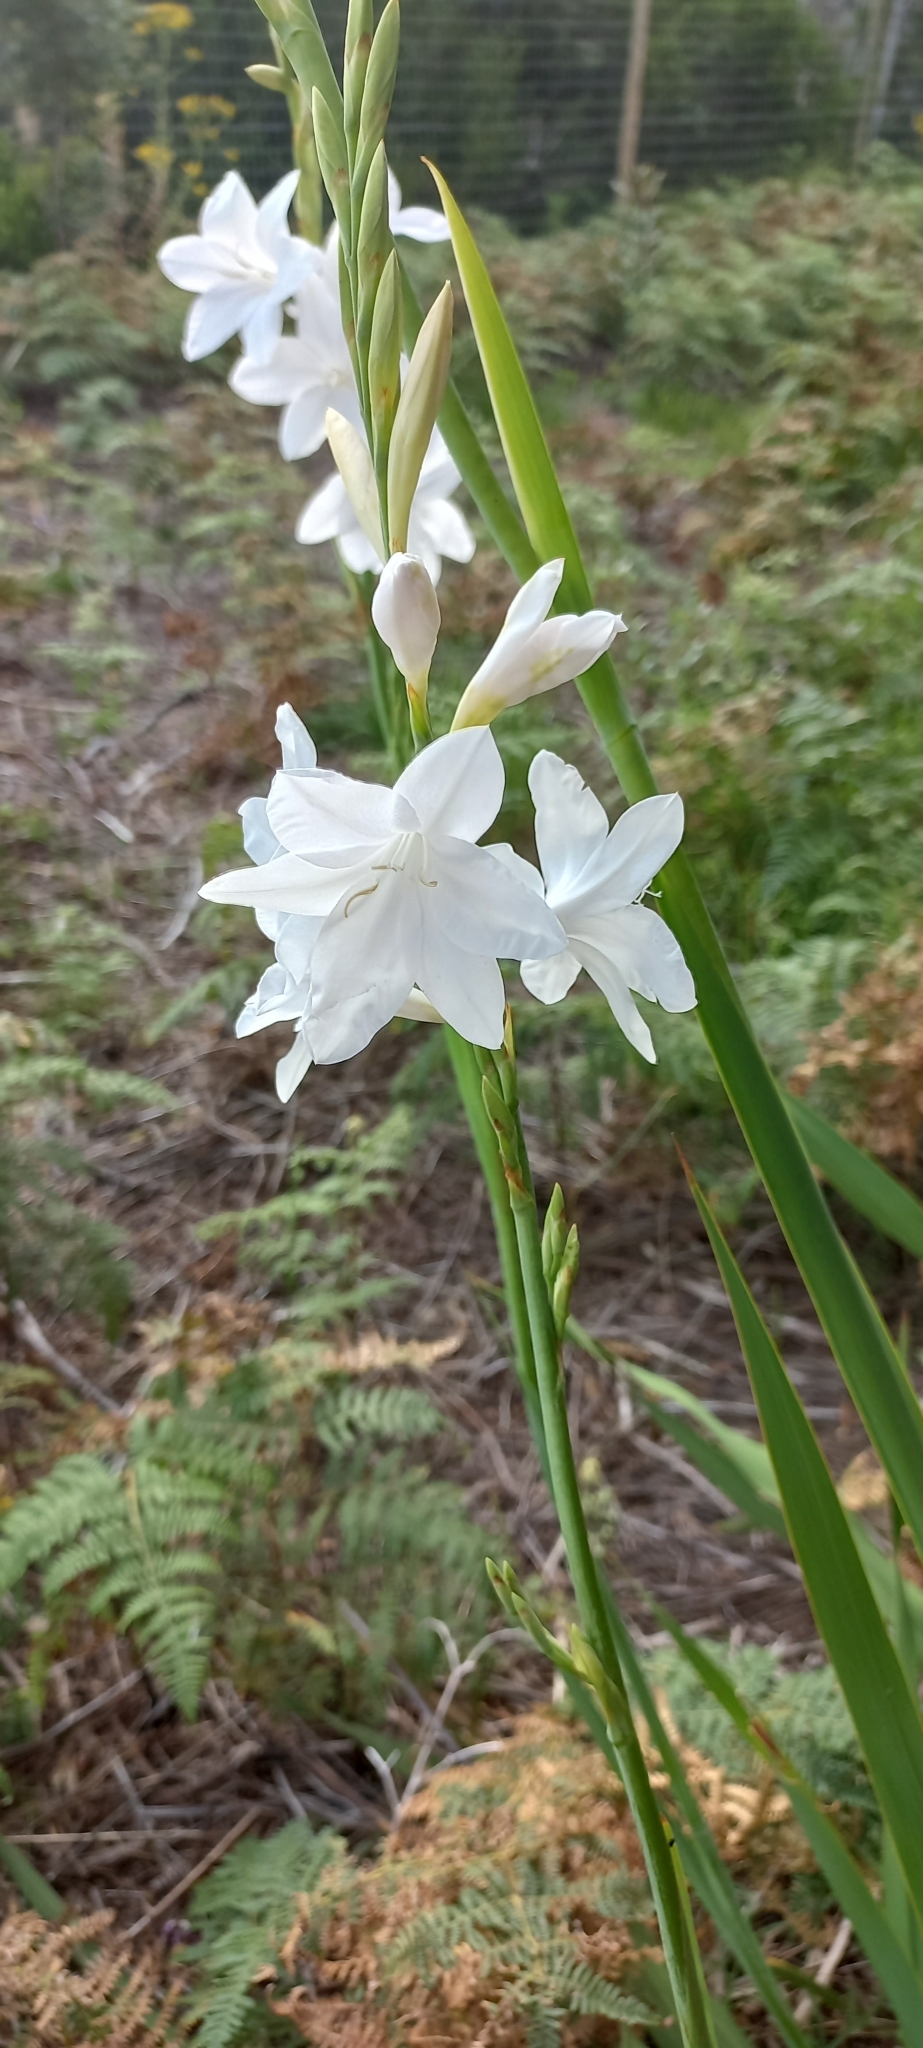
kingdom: Plantae
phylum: Tracheophyta
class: Liliopsida
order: Asparagales
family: Iridaceae
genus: Watsonia
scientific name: Watsonia borbonica
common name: Bugle-lily
